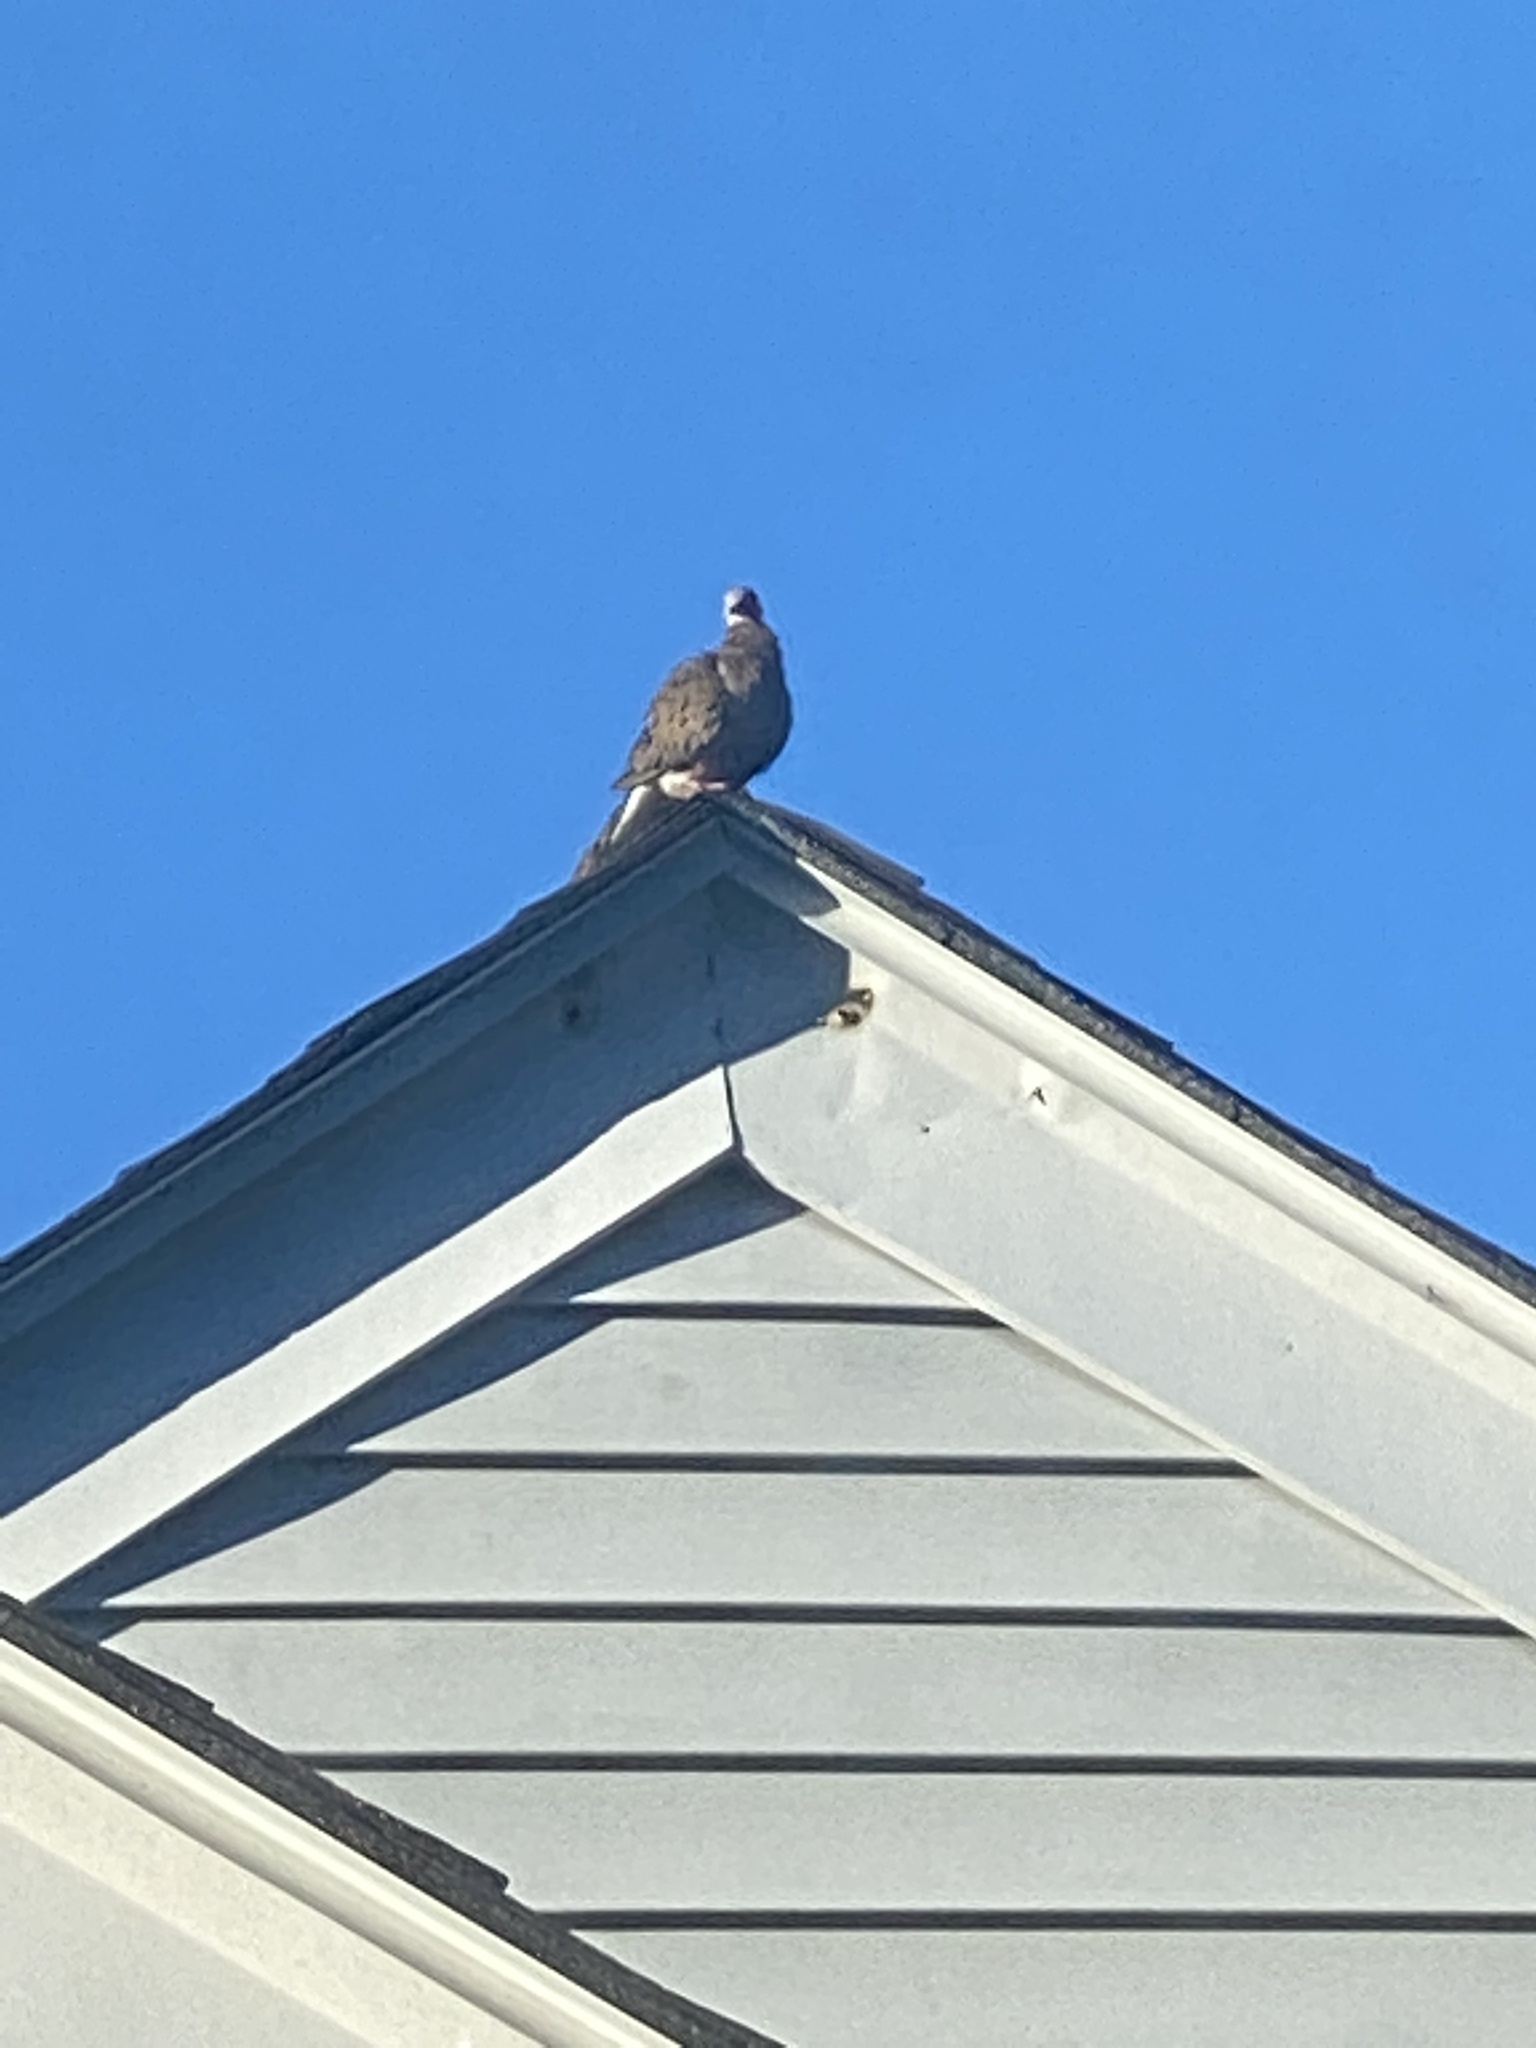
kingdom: Animalia
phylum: Chordata
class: Aves
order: Columbiformes
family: Columbidae
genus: Zenaida
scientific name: Zenaida macroura
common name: Mourning dove
